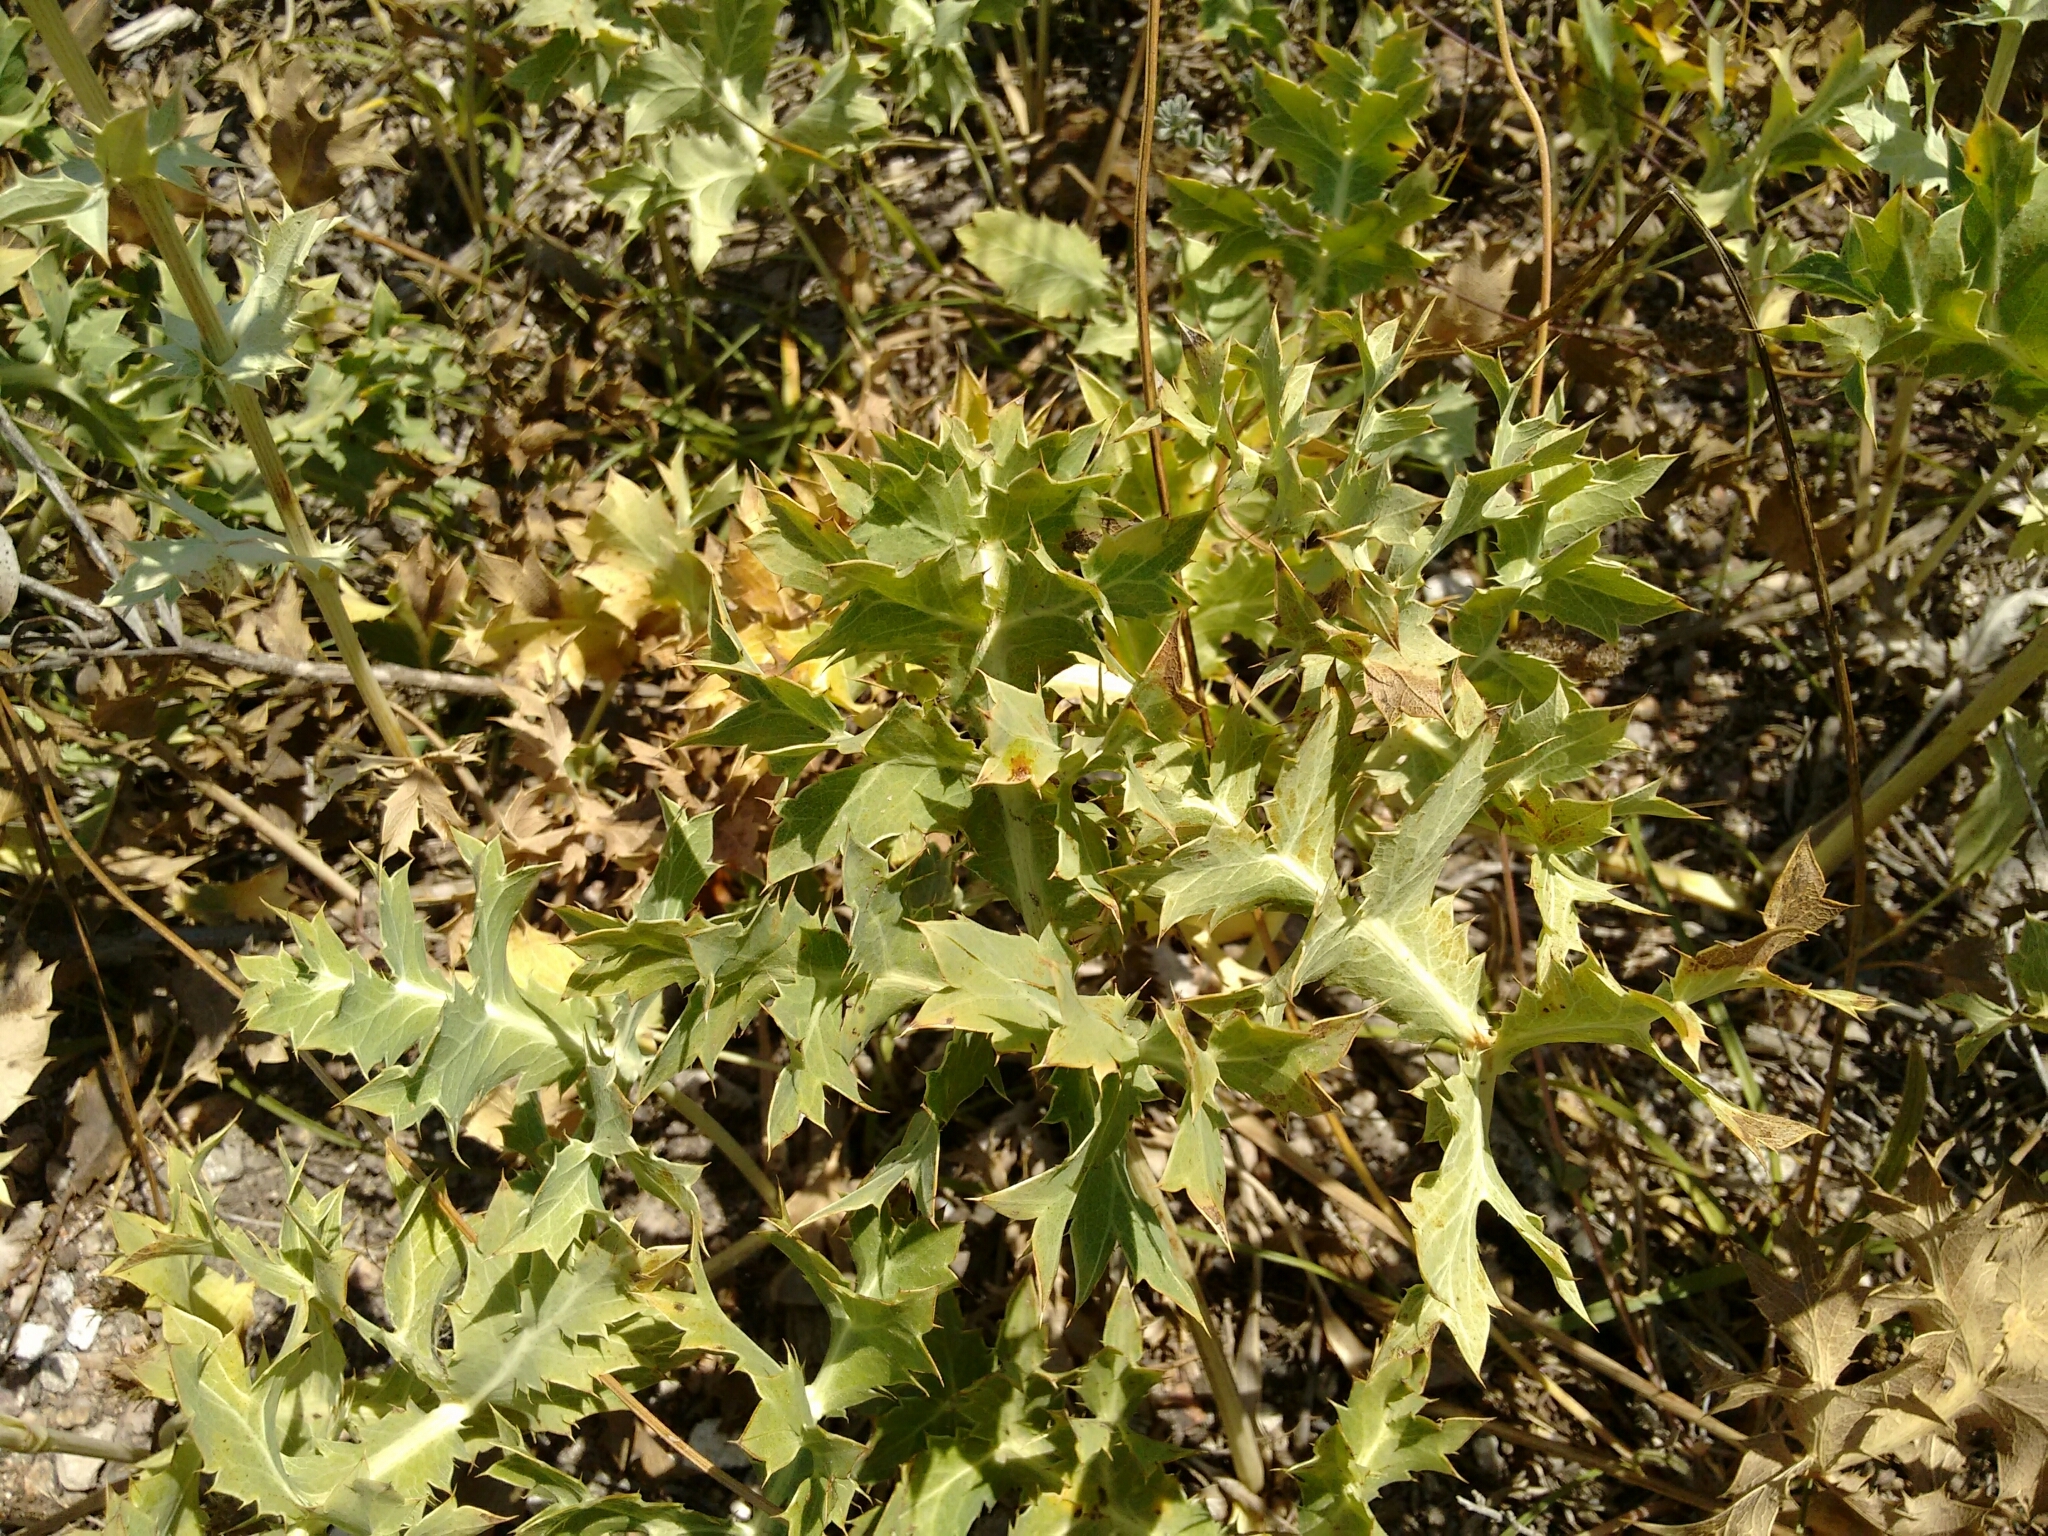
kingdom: Plantae
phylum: Tracheophyta
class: Magnoliopsida
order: Apiales
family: Apiaceae
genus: Eryngium
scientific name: Eryngium campestre
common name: Field eryngo
